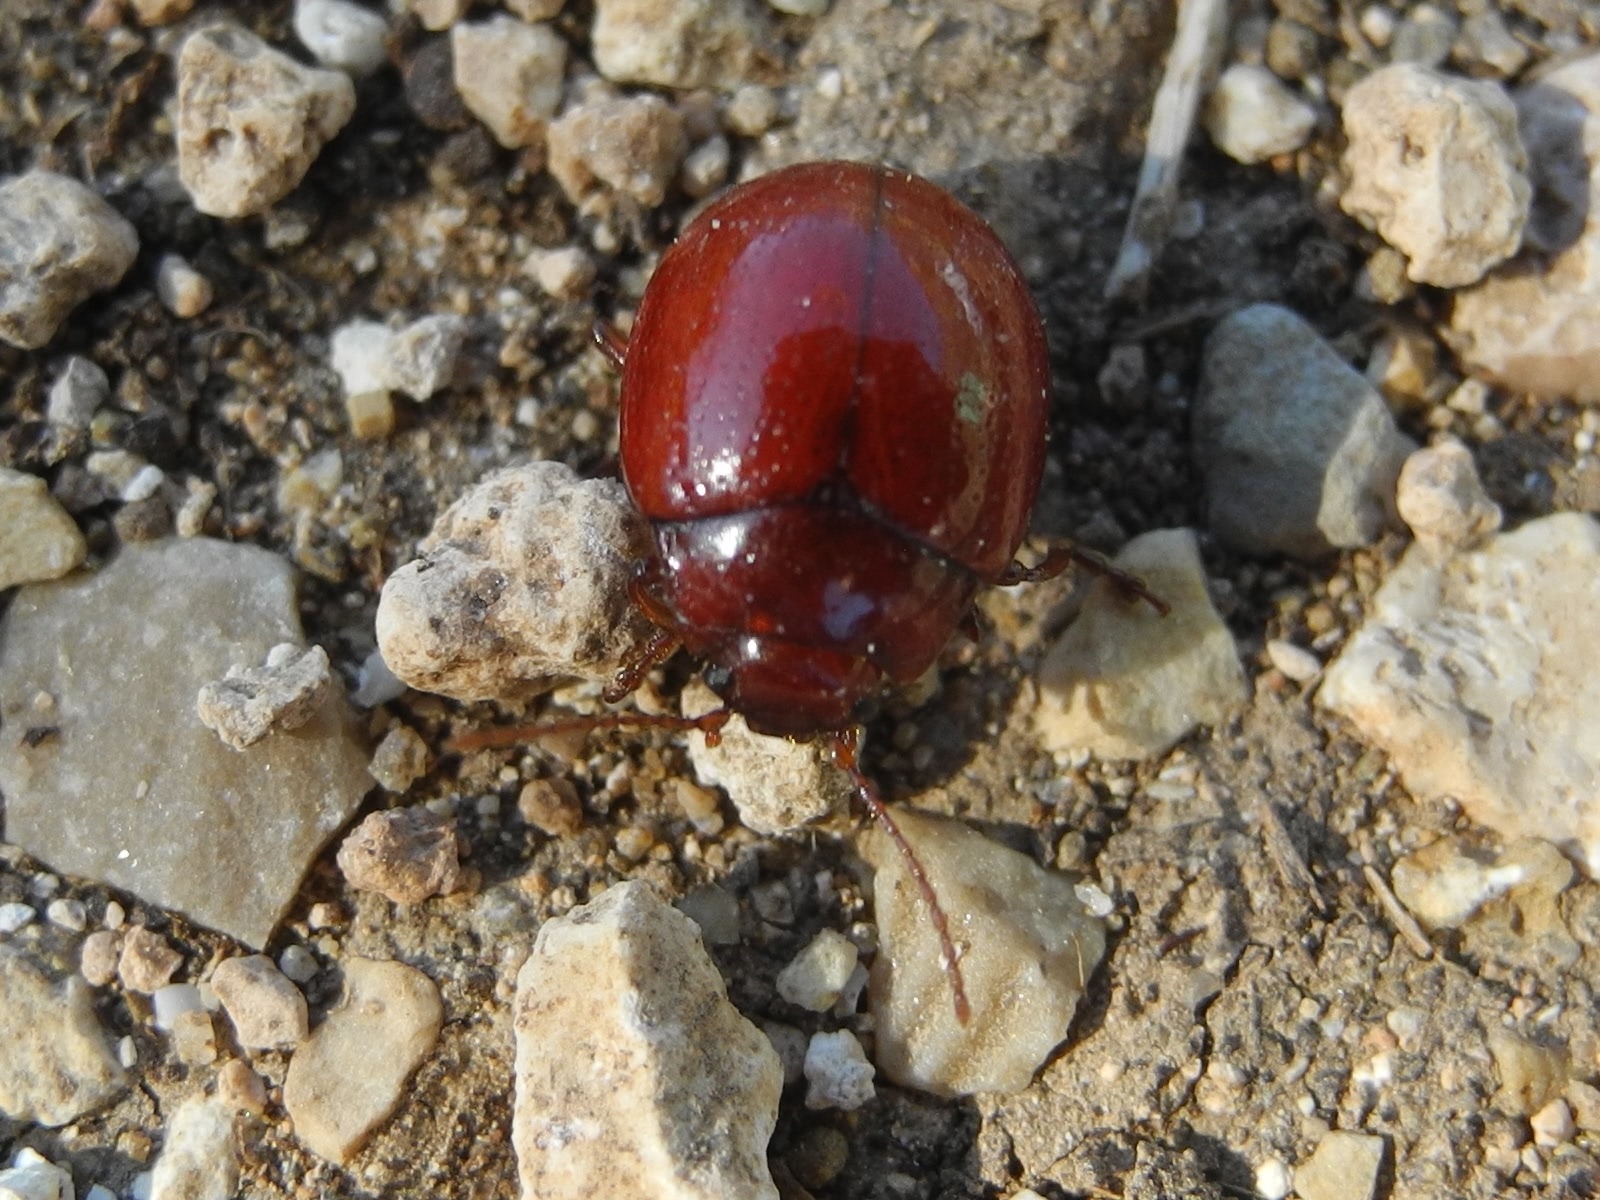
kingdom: Animalia
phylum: Arthropoda
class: Insecta
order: Coleoptera
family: Chrysomelidae
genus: Chrysolina
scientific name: Chrysolina
